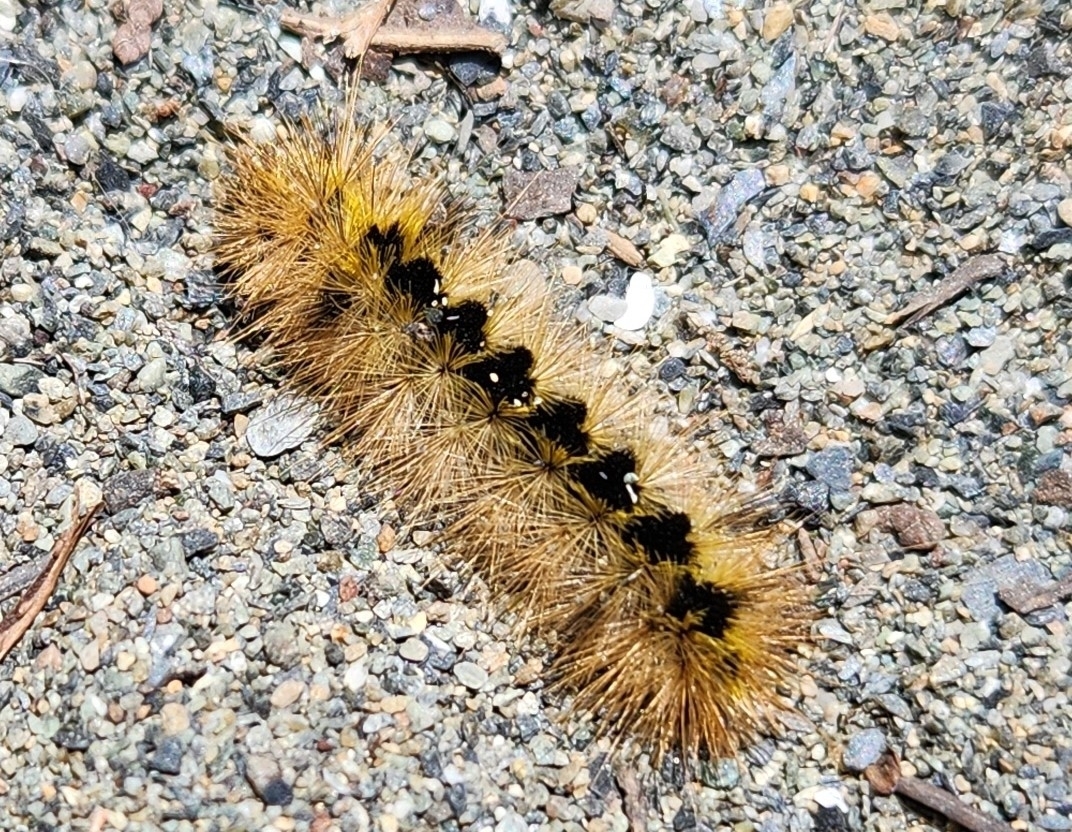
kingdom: Animalia
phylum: Arthropoda
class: Insecta
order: Lepidoptera
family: Erebidae
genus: Lophocampa
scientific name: Lophocampa argentata
